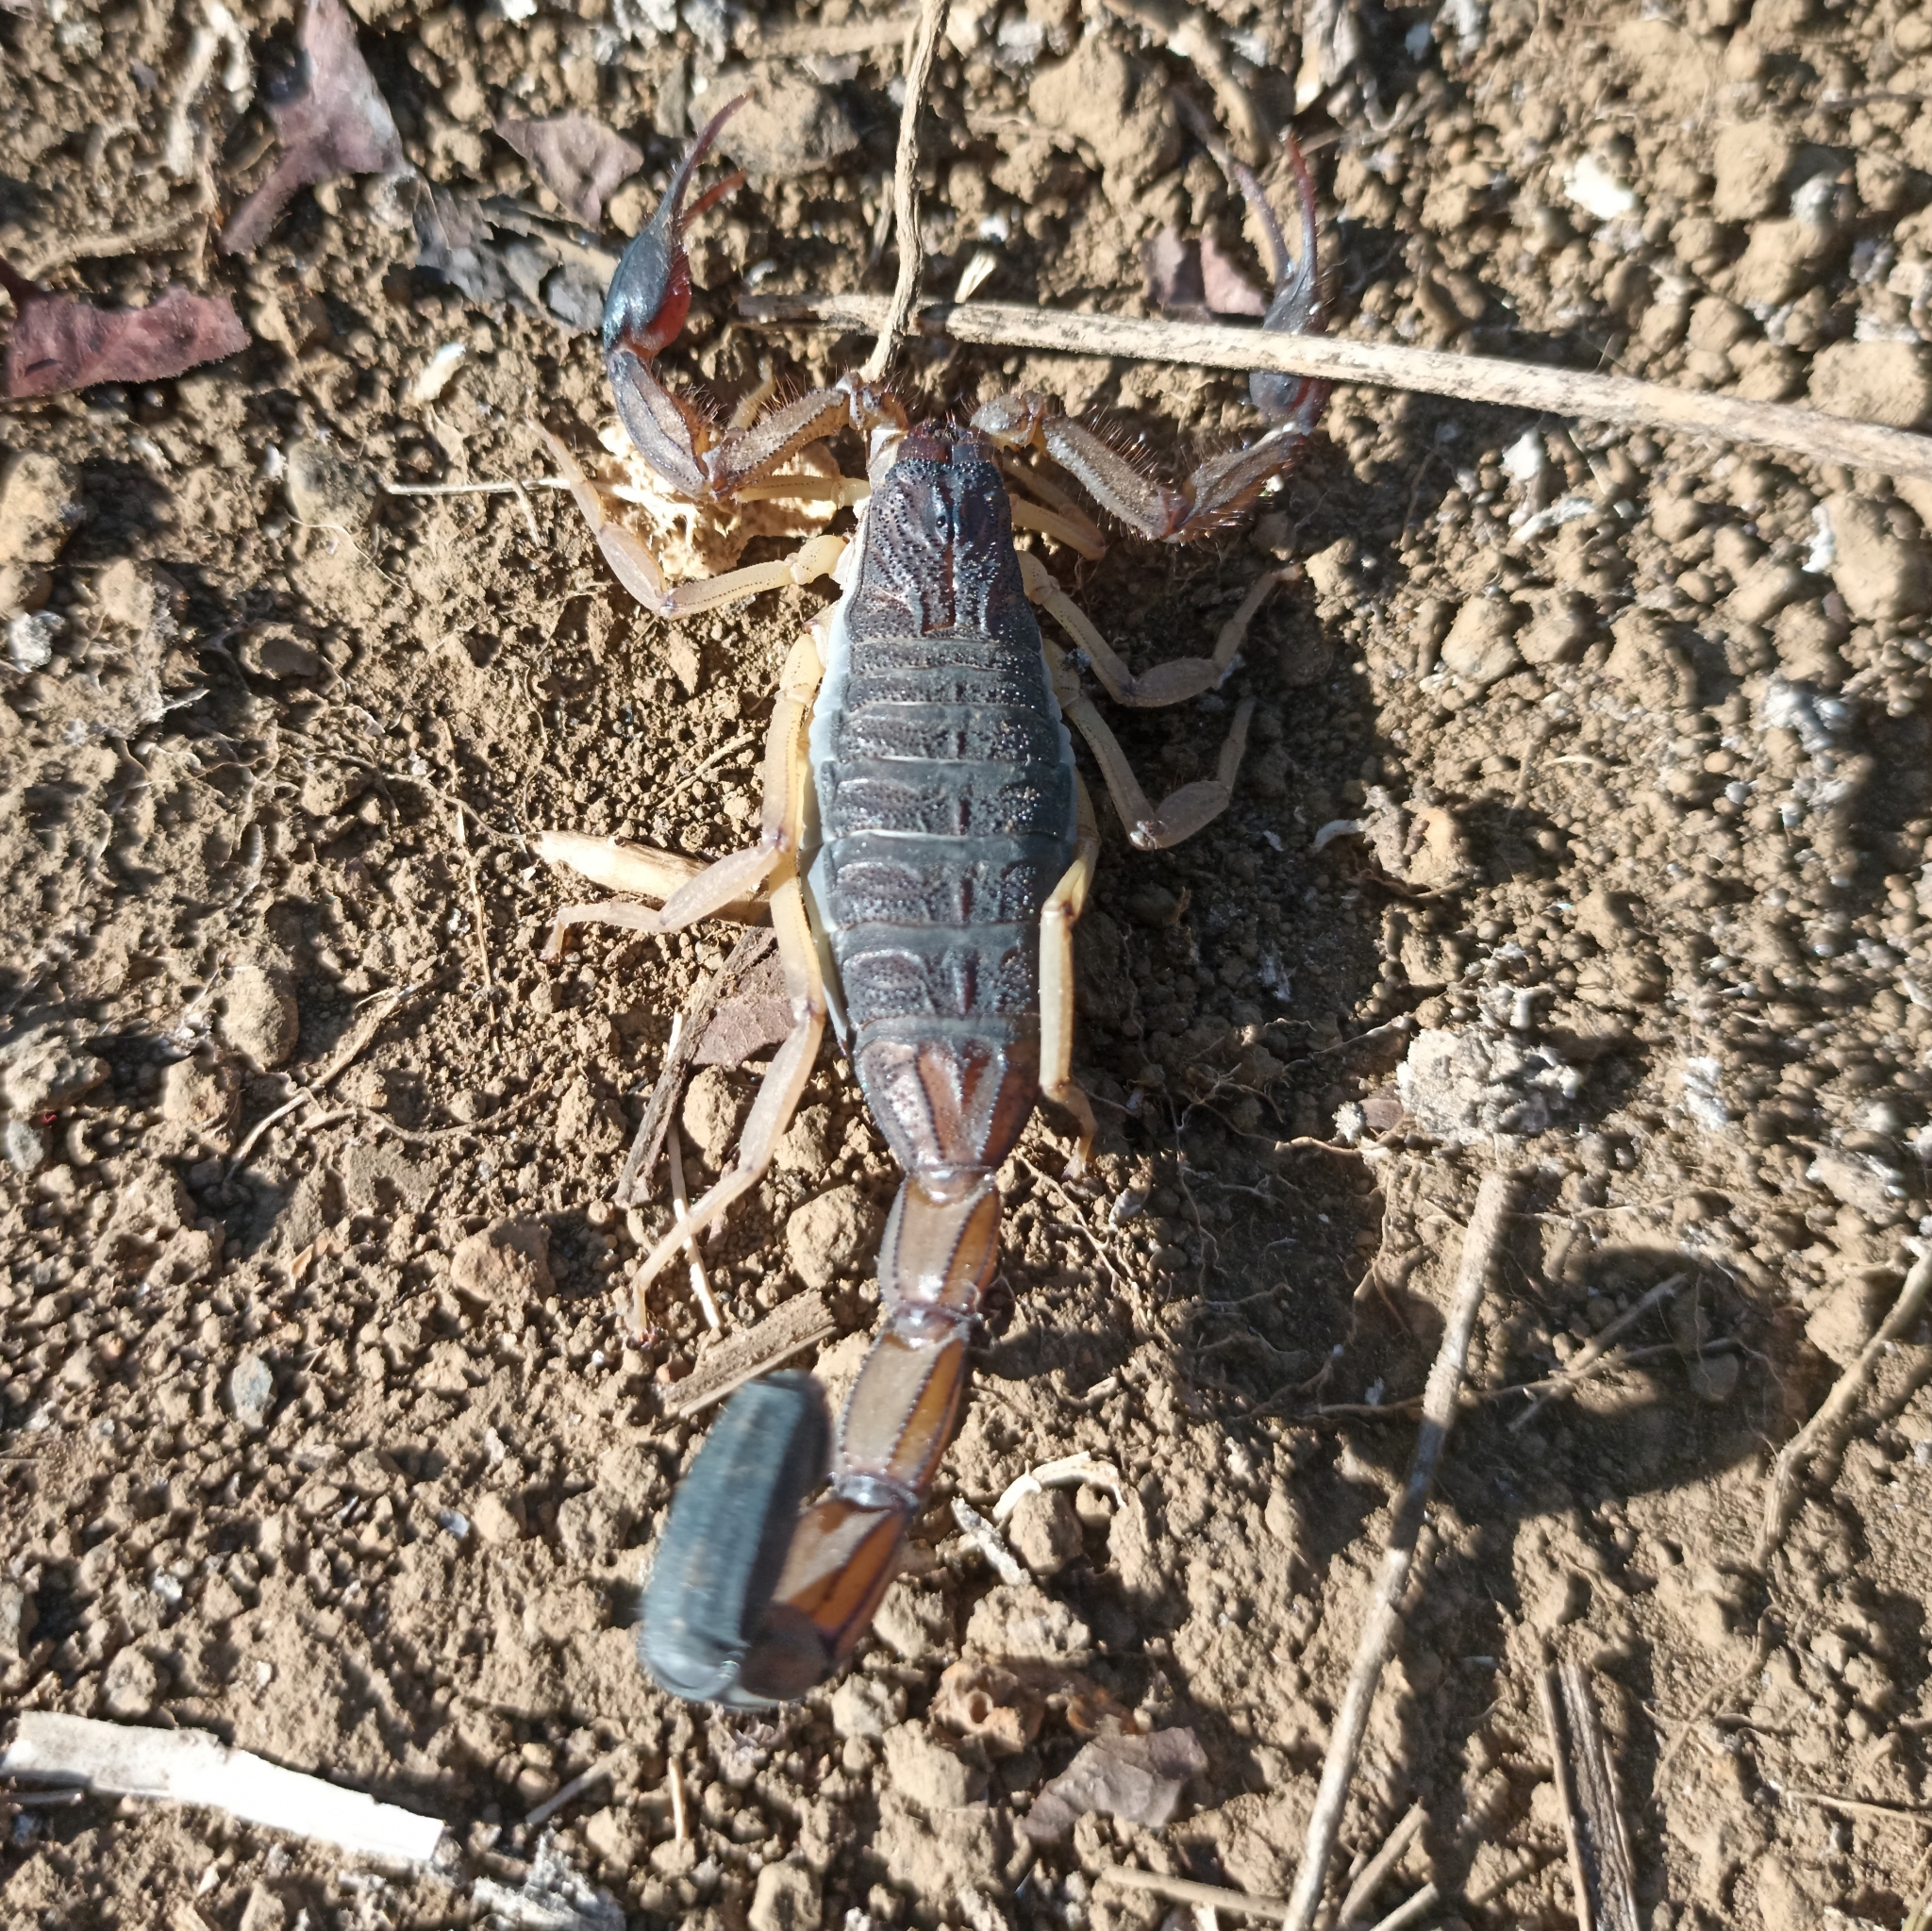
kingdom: Animalia
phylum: Arthropoda
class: Arachnida
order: Scorpiones
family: Buthidae
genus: Centruroides
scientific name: Centruroides edwardsii
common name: Scorpions
